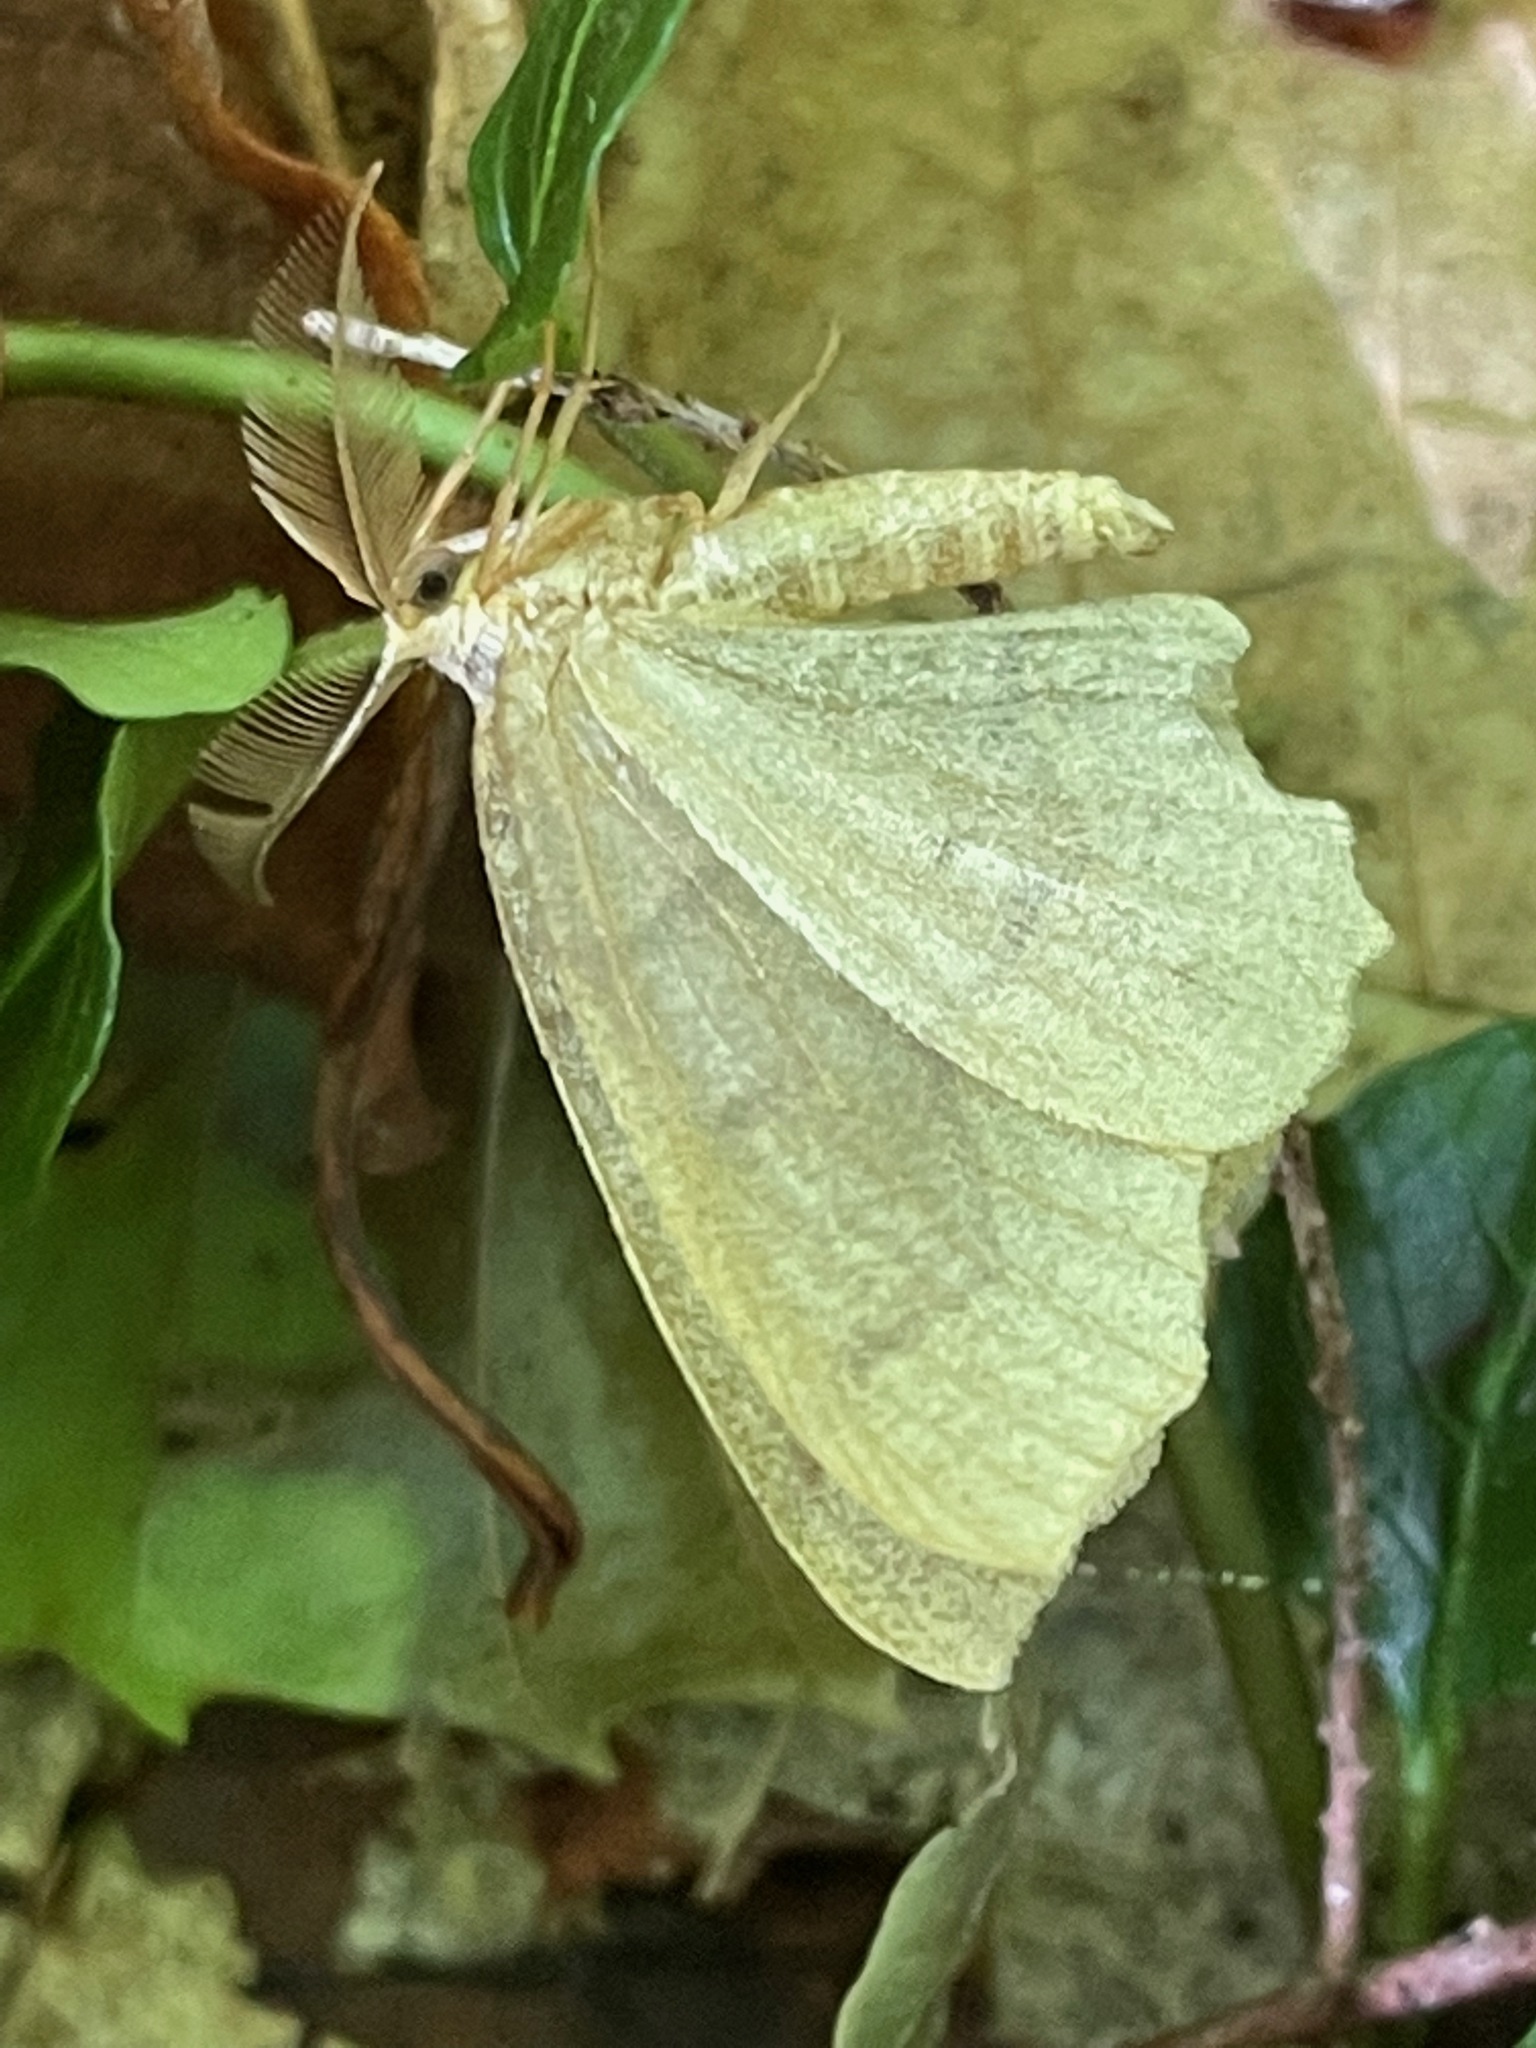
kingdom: Animalia
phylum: Arthropoda
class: Insecta
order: Lepidoptera
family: Geometridae
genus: Lambdina
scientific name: Lambdina fiscellaria
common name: Hemlock looper
